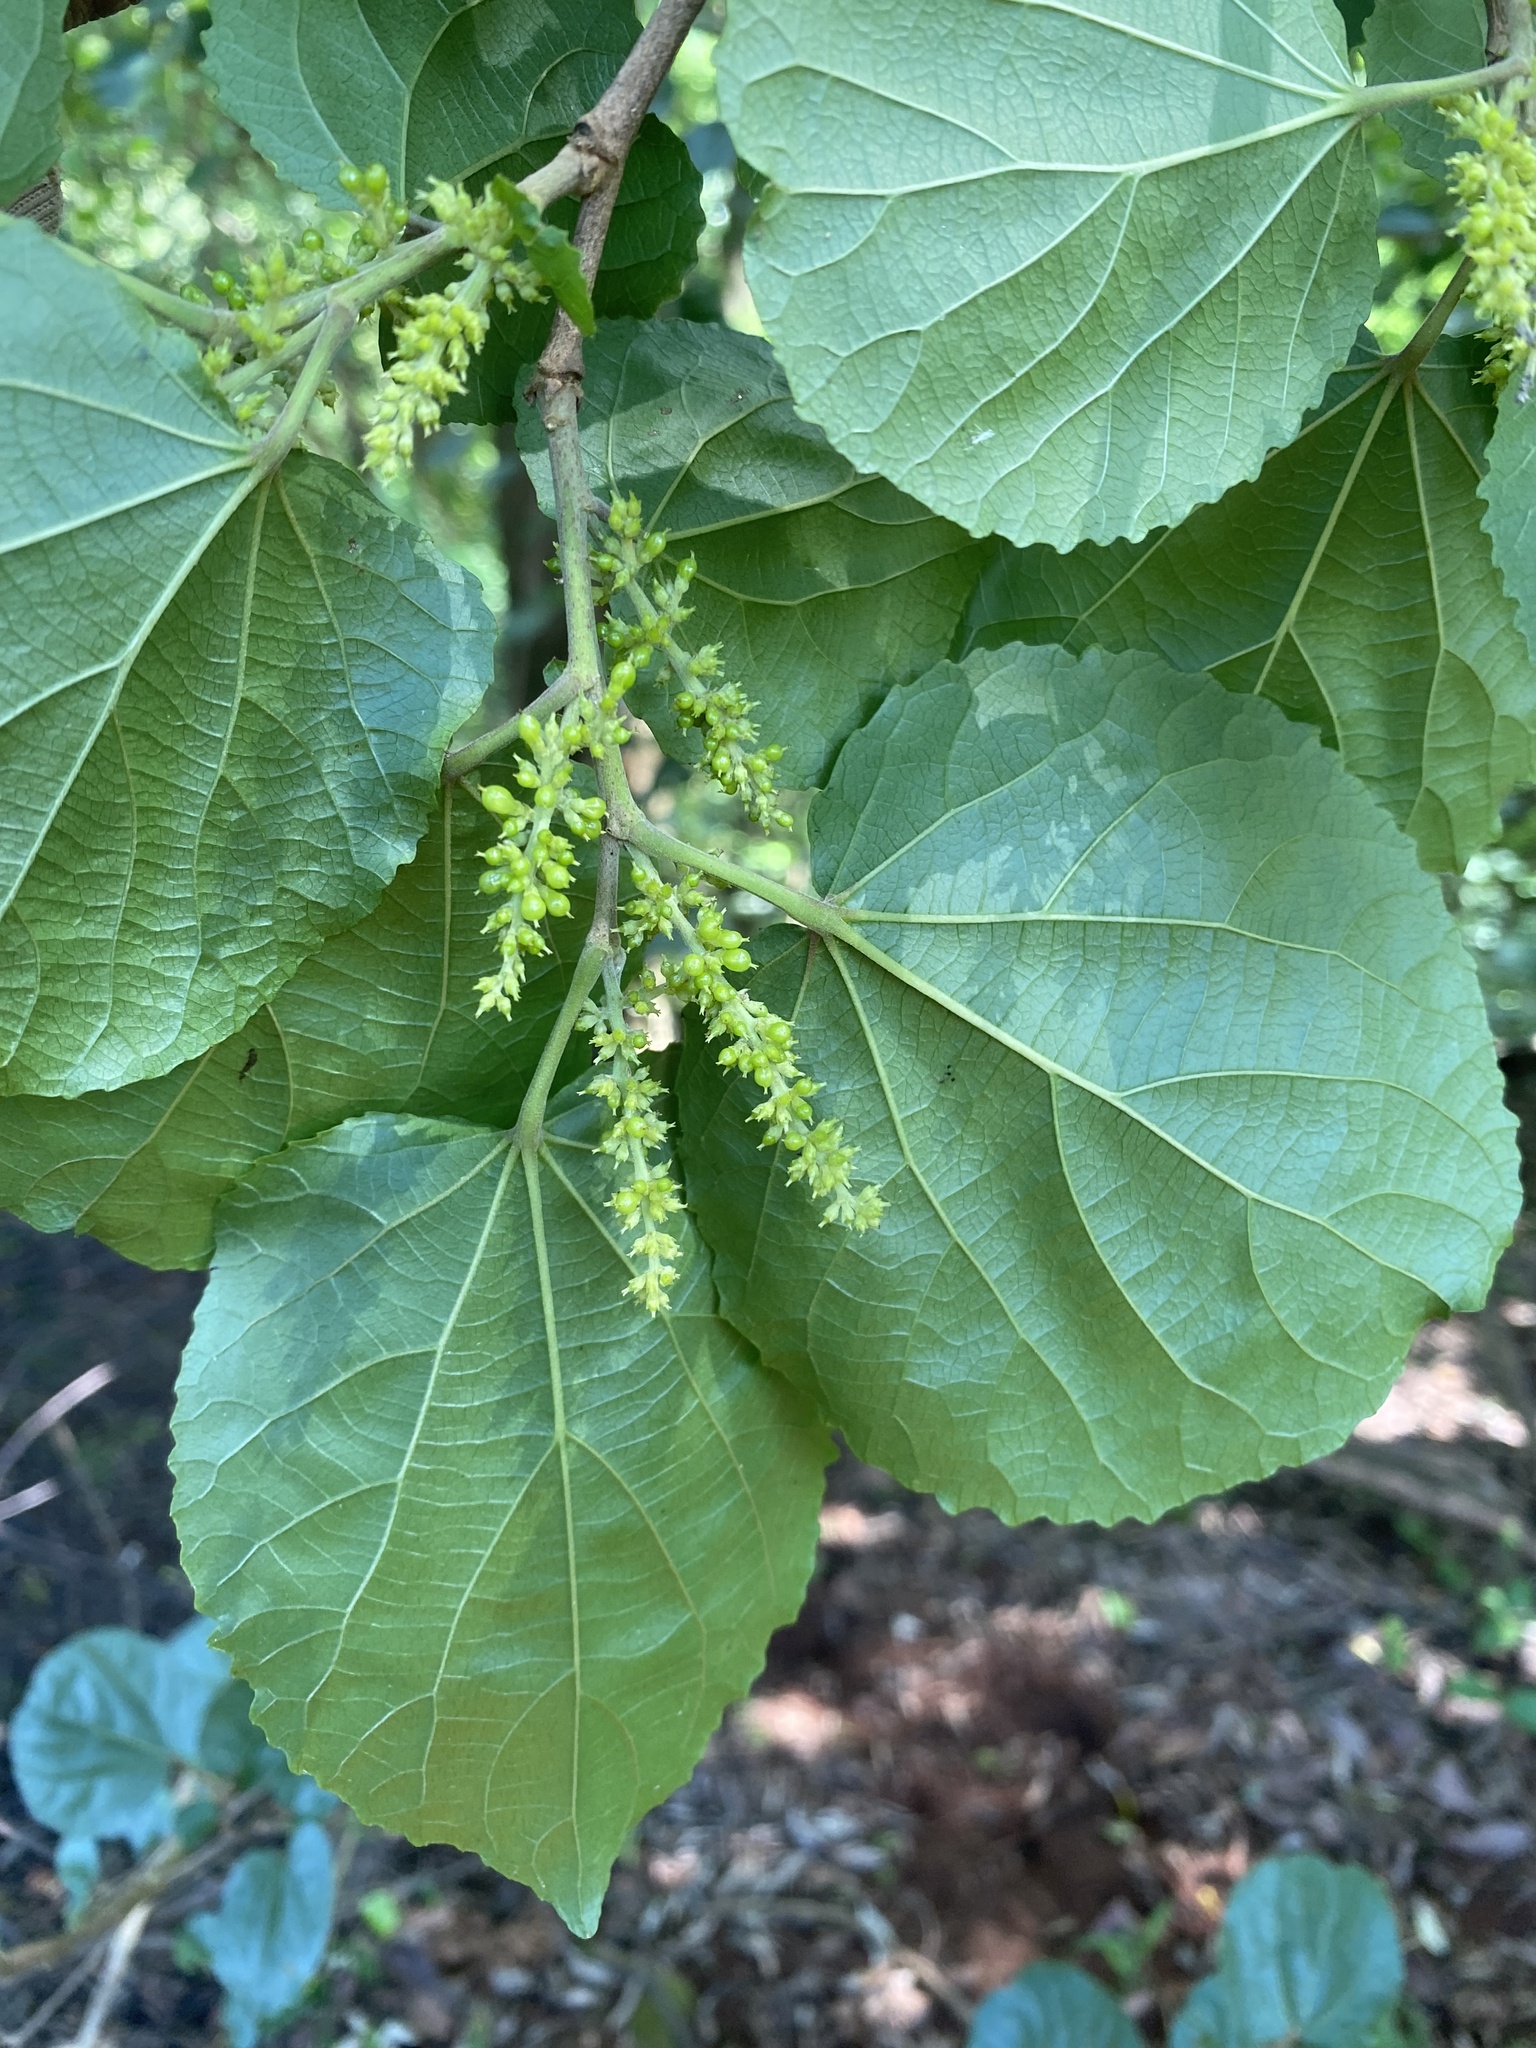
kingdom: Plantae
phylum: Tracheophyta
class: Magnoliopsida
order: Malpighiales
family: Salicaceae
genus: Trimeria
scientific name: Trimeria grandifolia
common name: Wild mulberry
